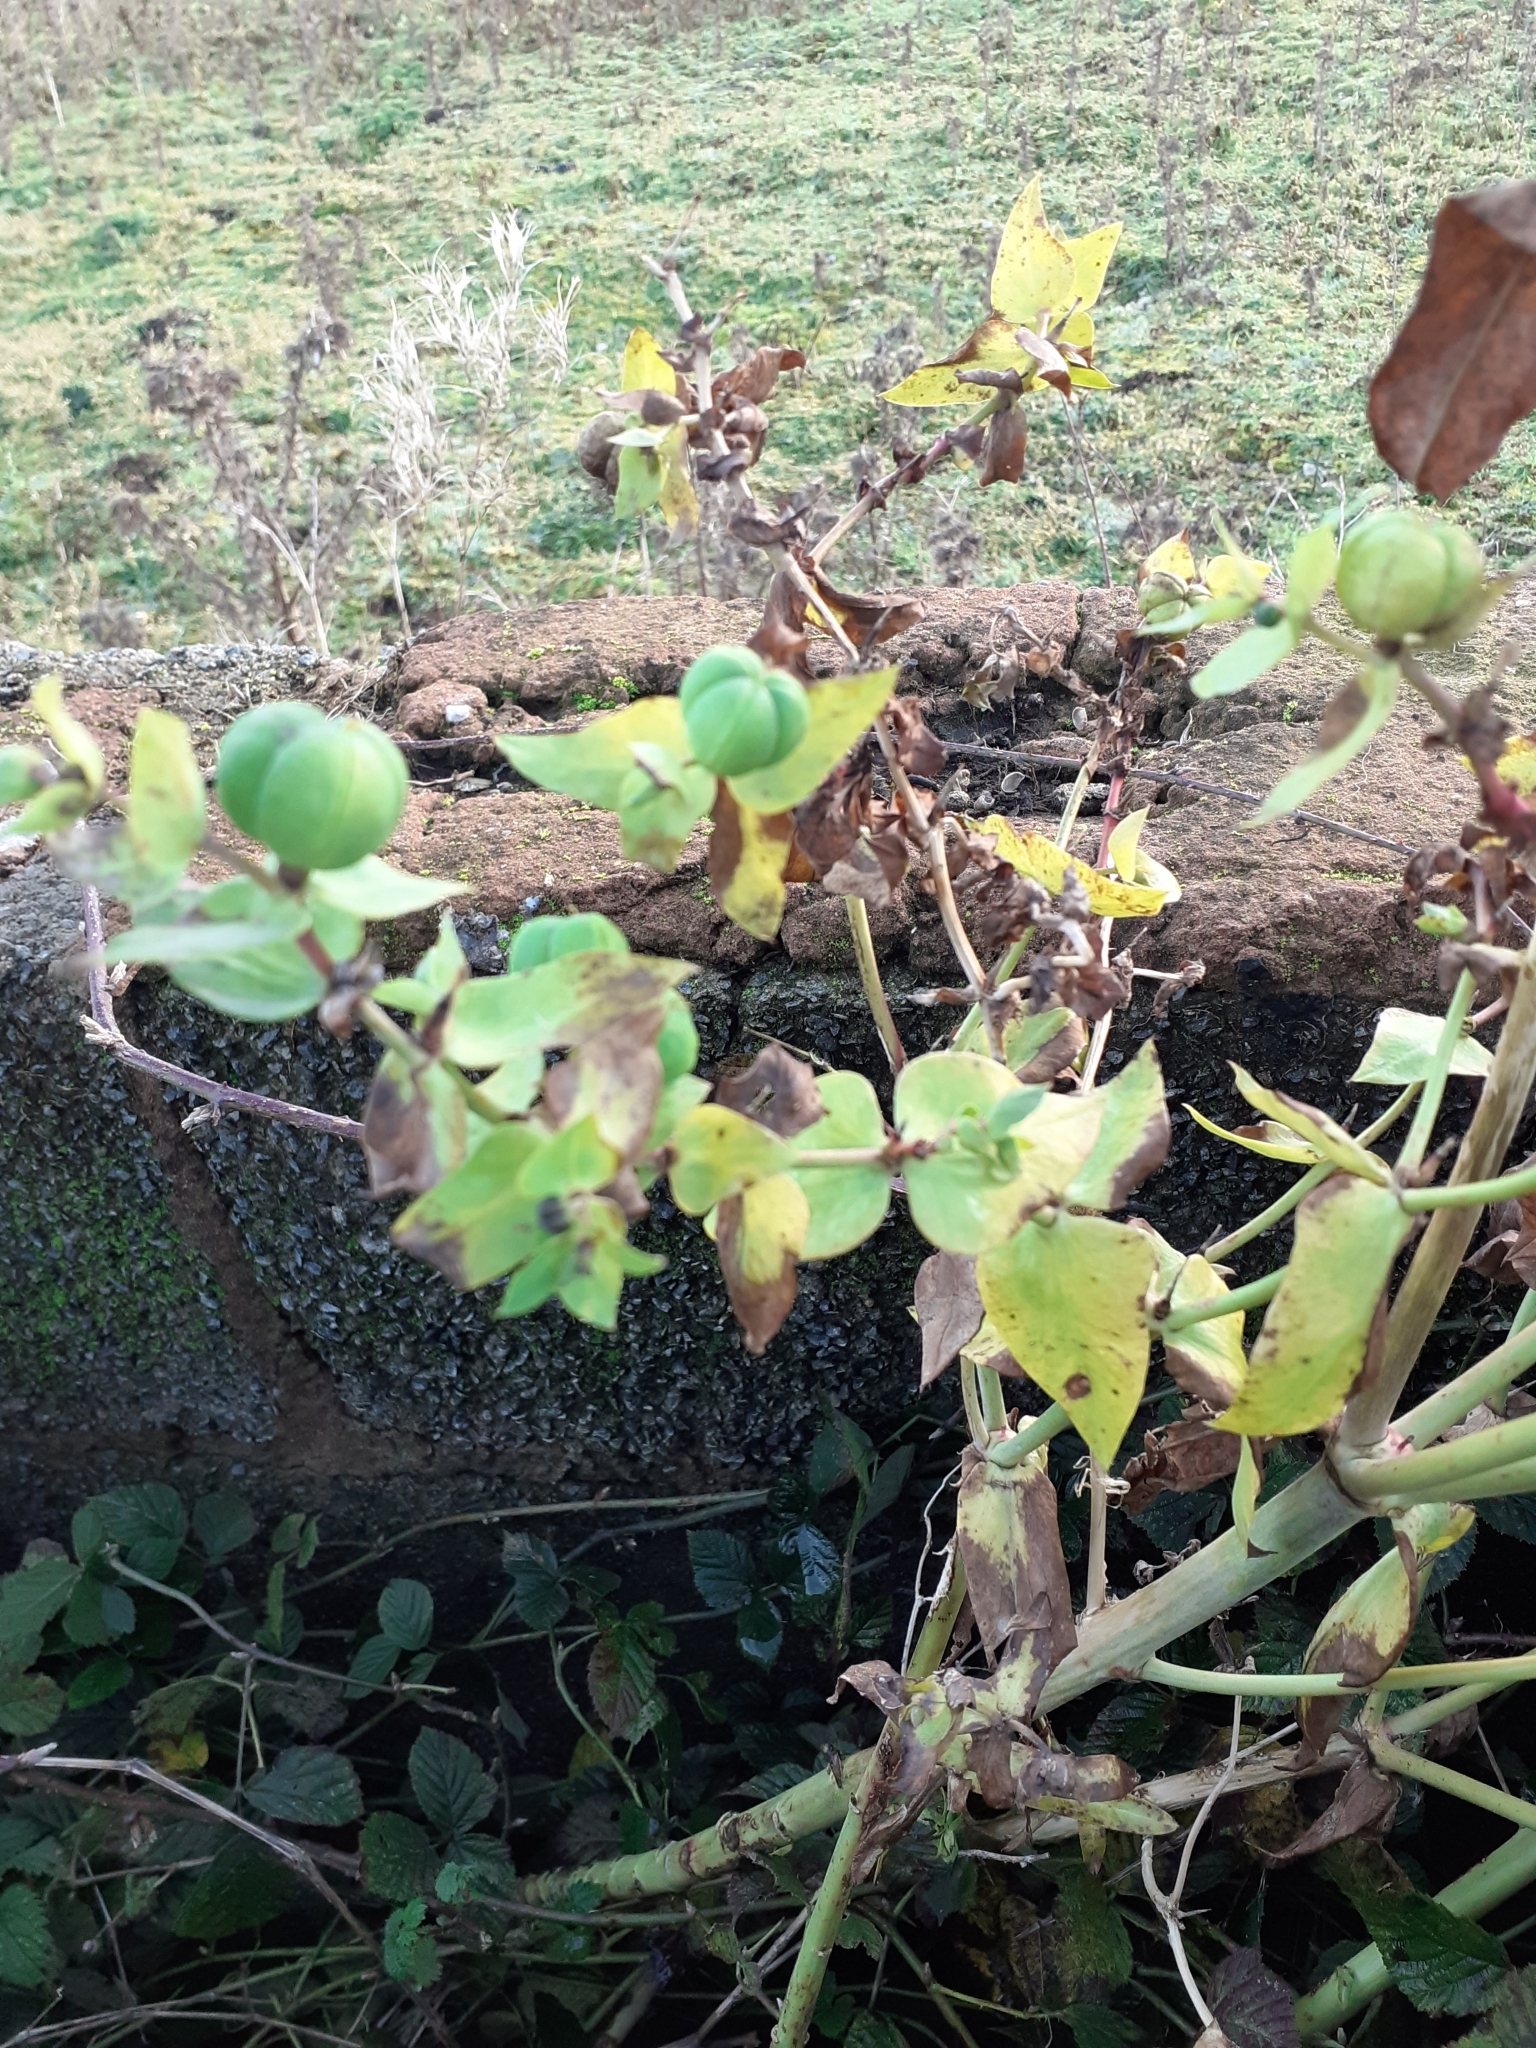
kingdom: Plantae
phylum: Tracheophyta
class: Magnoliopsida
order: Malpighiales
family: Euphorbiaceae
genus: Euphorbia
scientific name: Euphorbia lathyris
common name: Caper spurge
